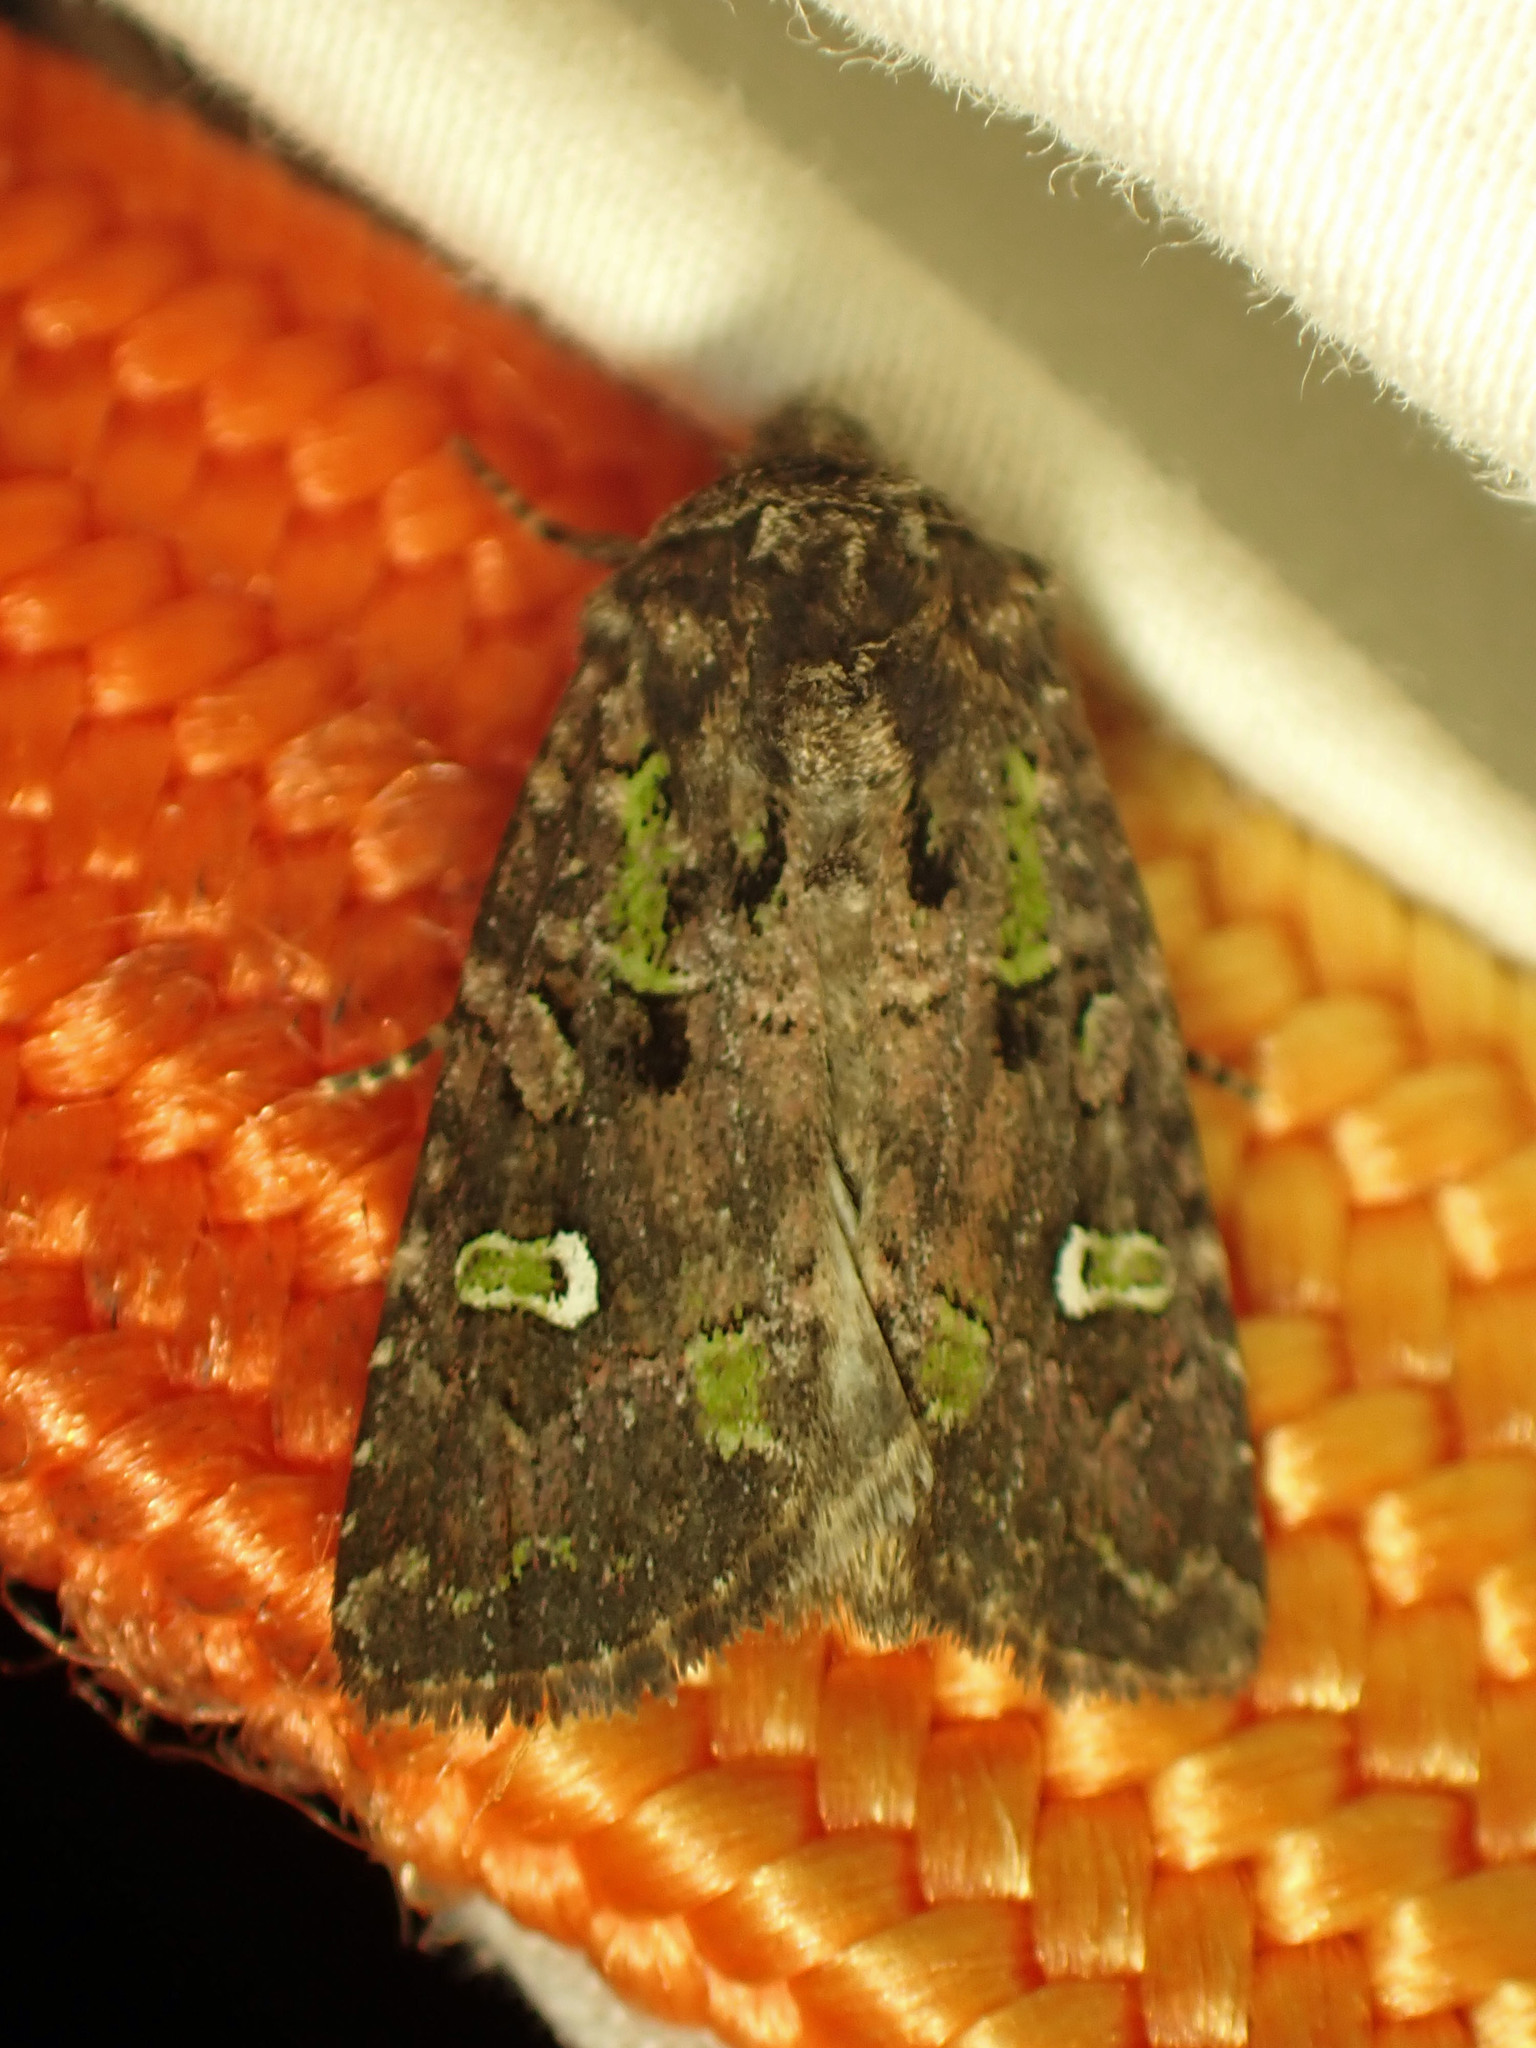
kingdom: Animalia
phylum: Arthropoda
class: Insecta
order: Lepidoptera
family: Noctuidae
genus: Lacinipolia
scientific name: Lacinipolia renigera
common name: Kidney-spotted minor
